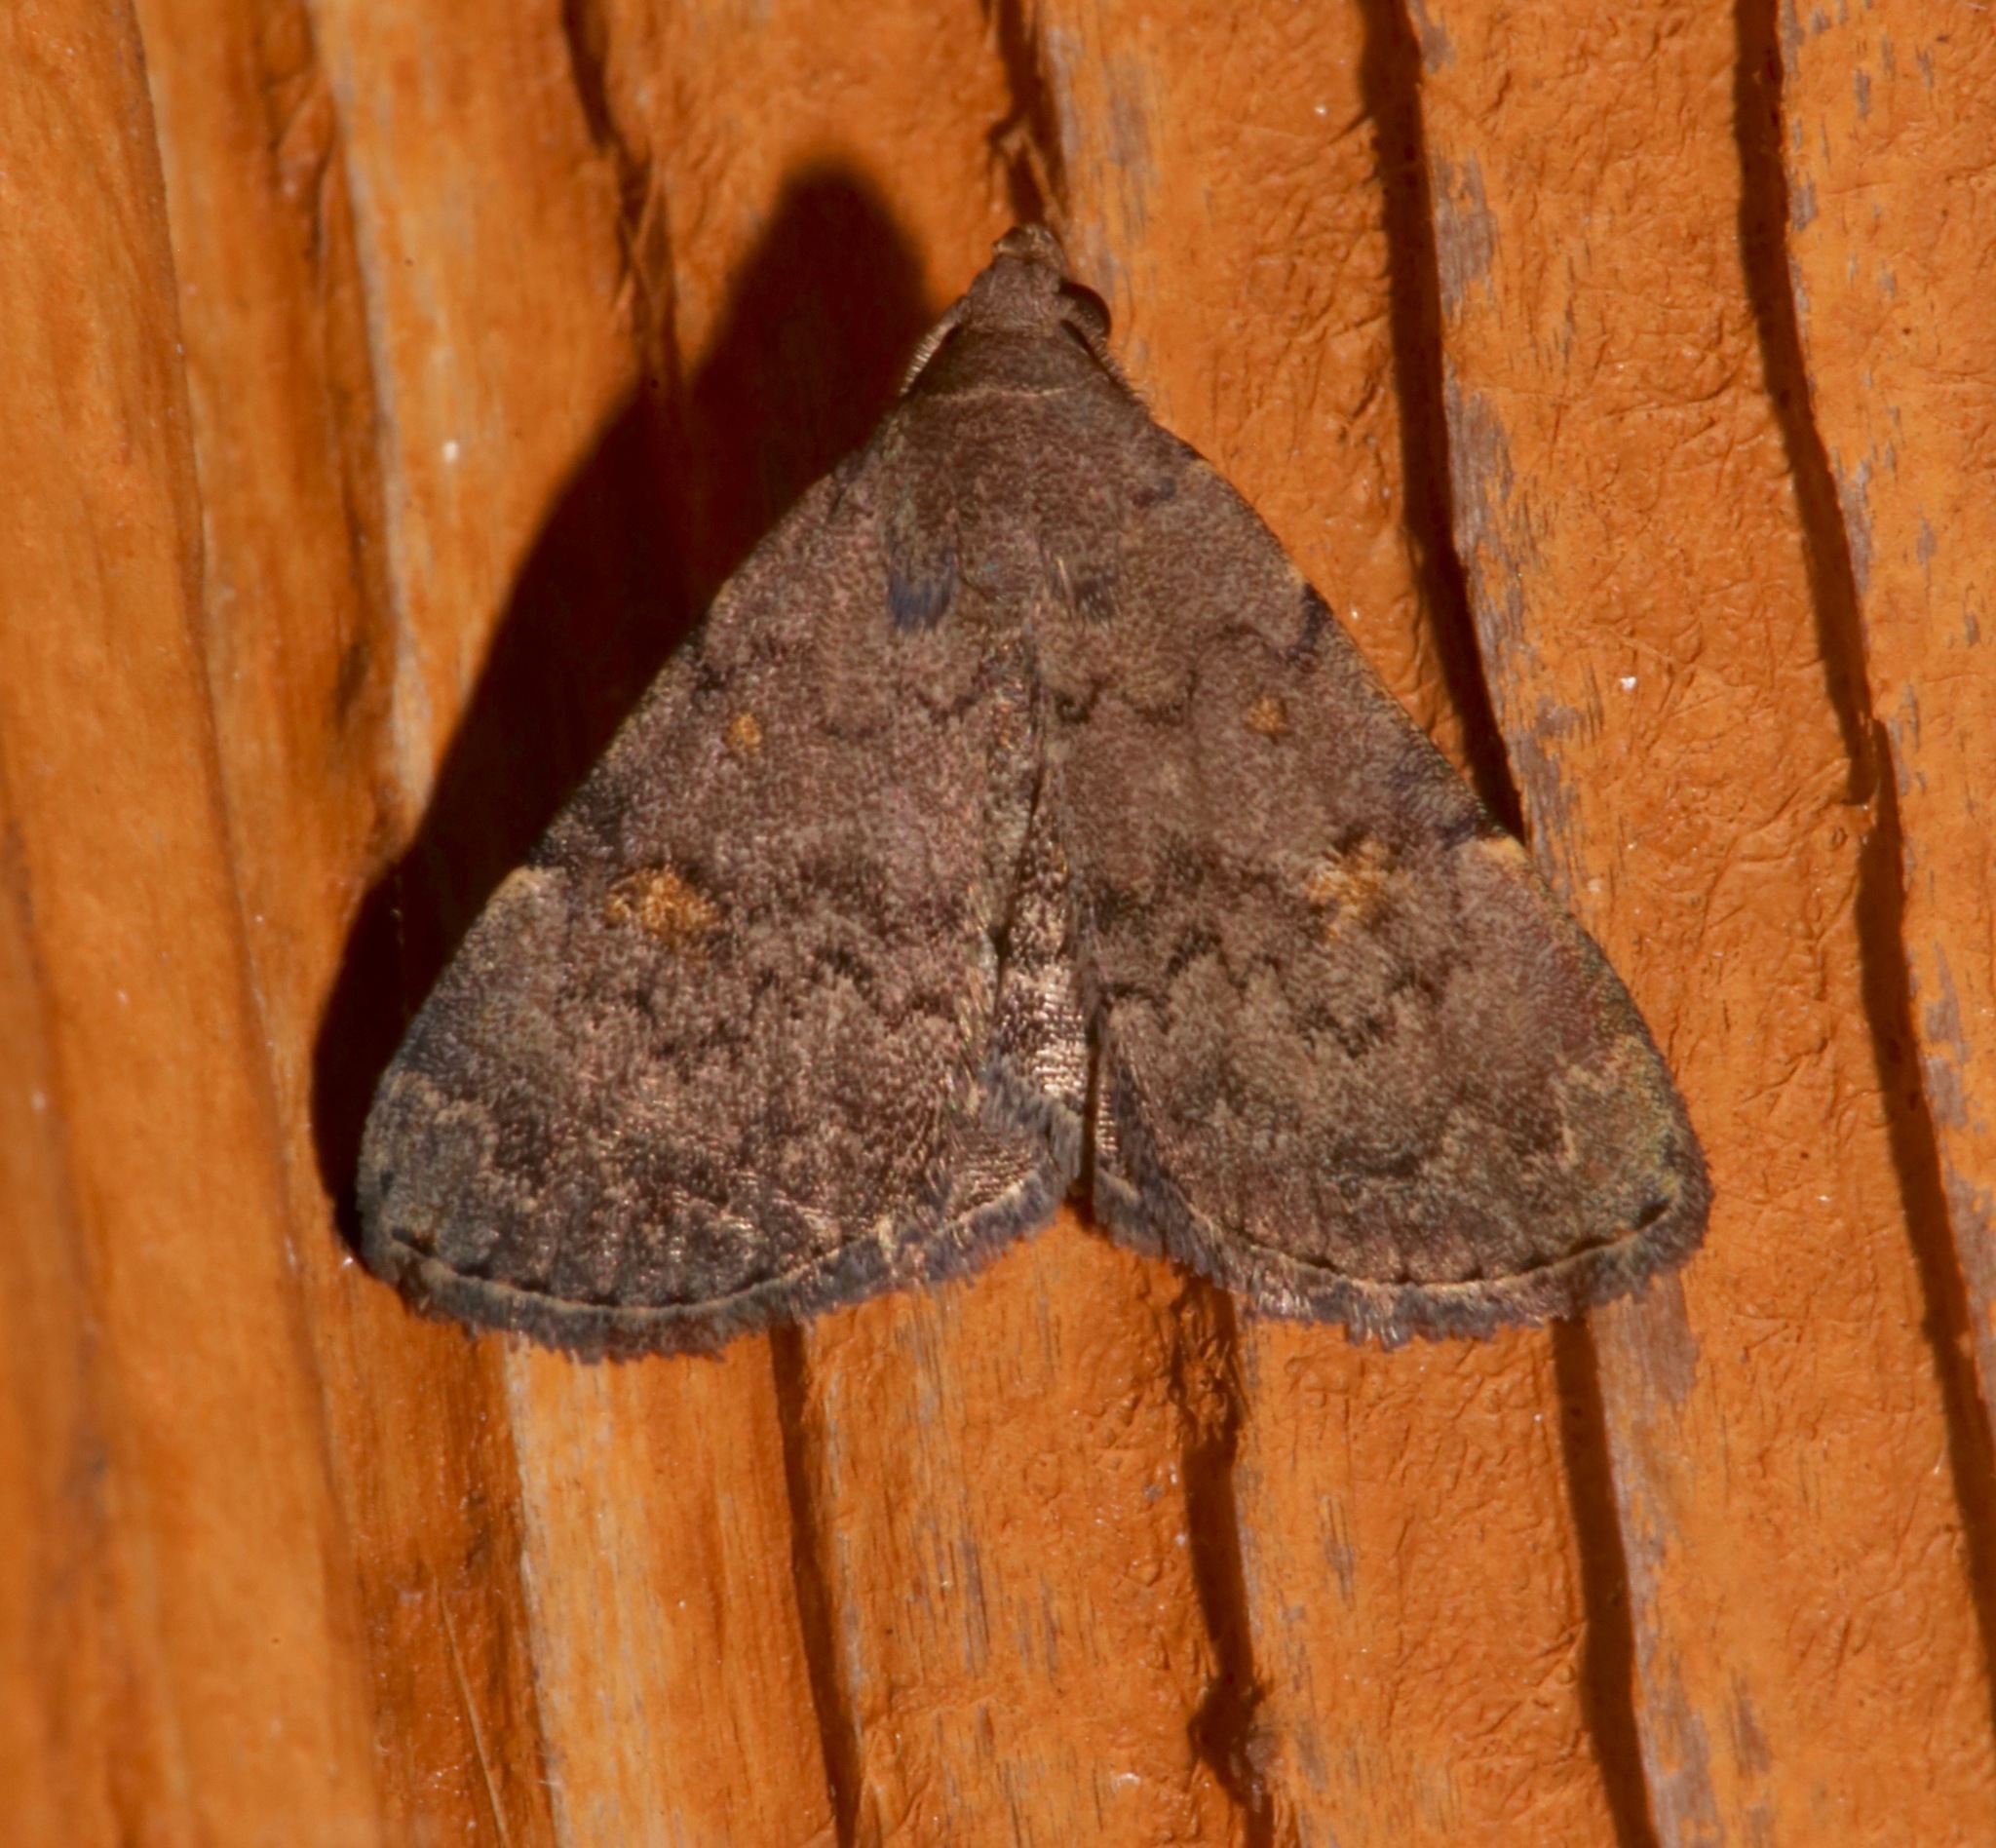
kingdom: Animalia
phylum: Arthropoda
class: Insecta
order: Lepidoptera
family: Erebidae
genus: Idia
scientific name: Idia aemula
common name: Common idia moth
